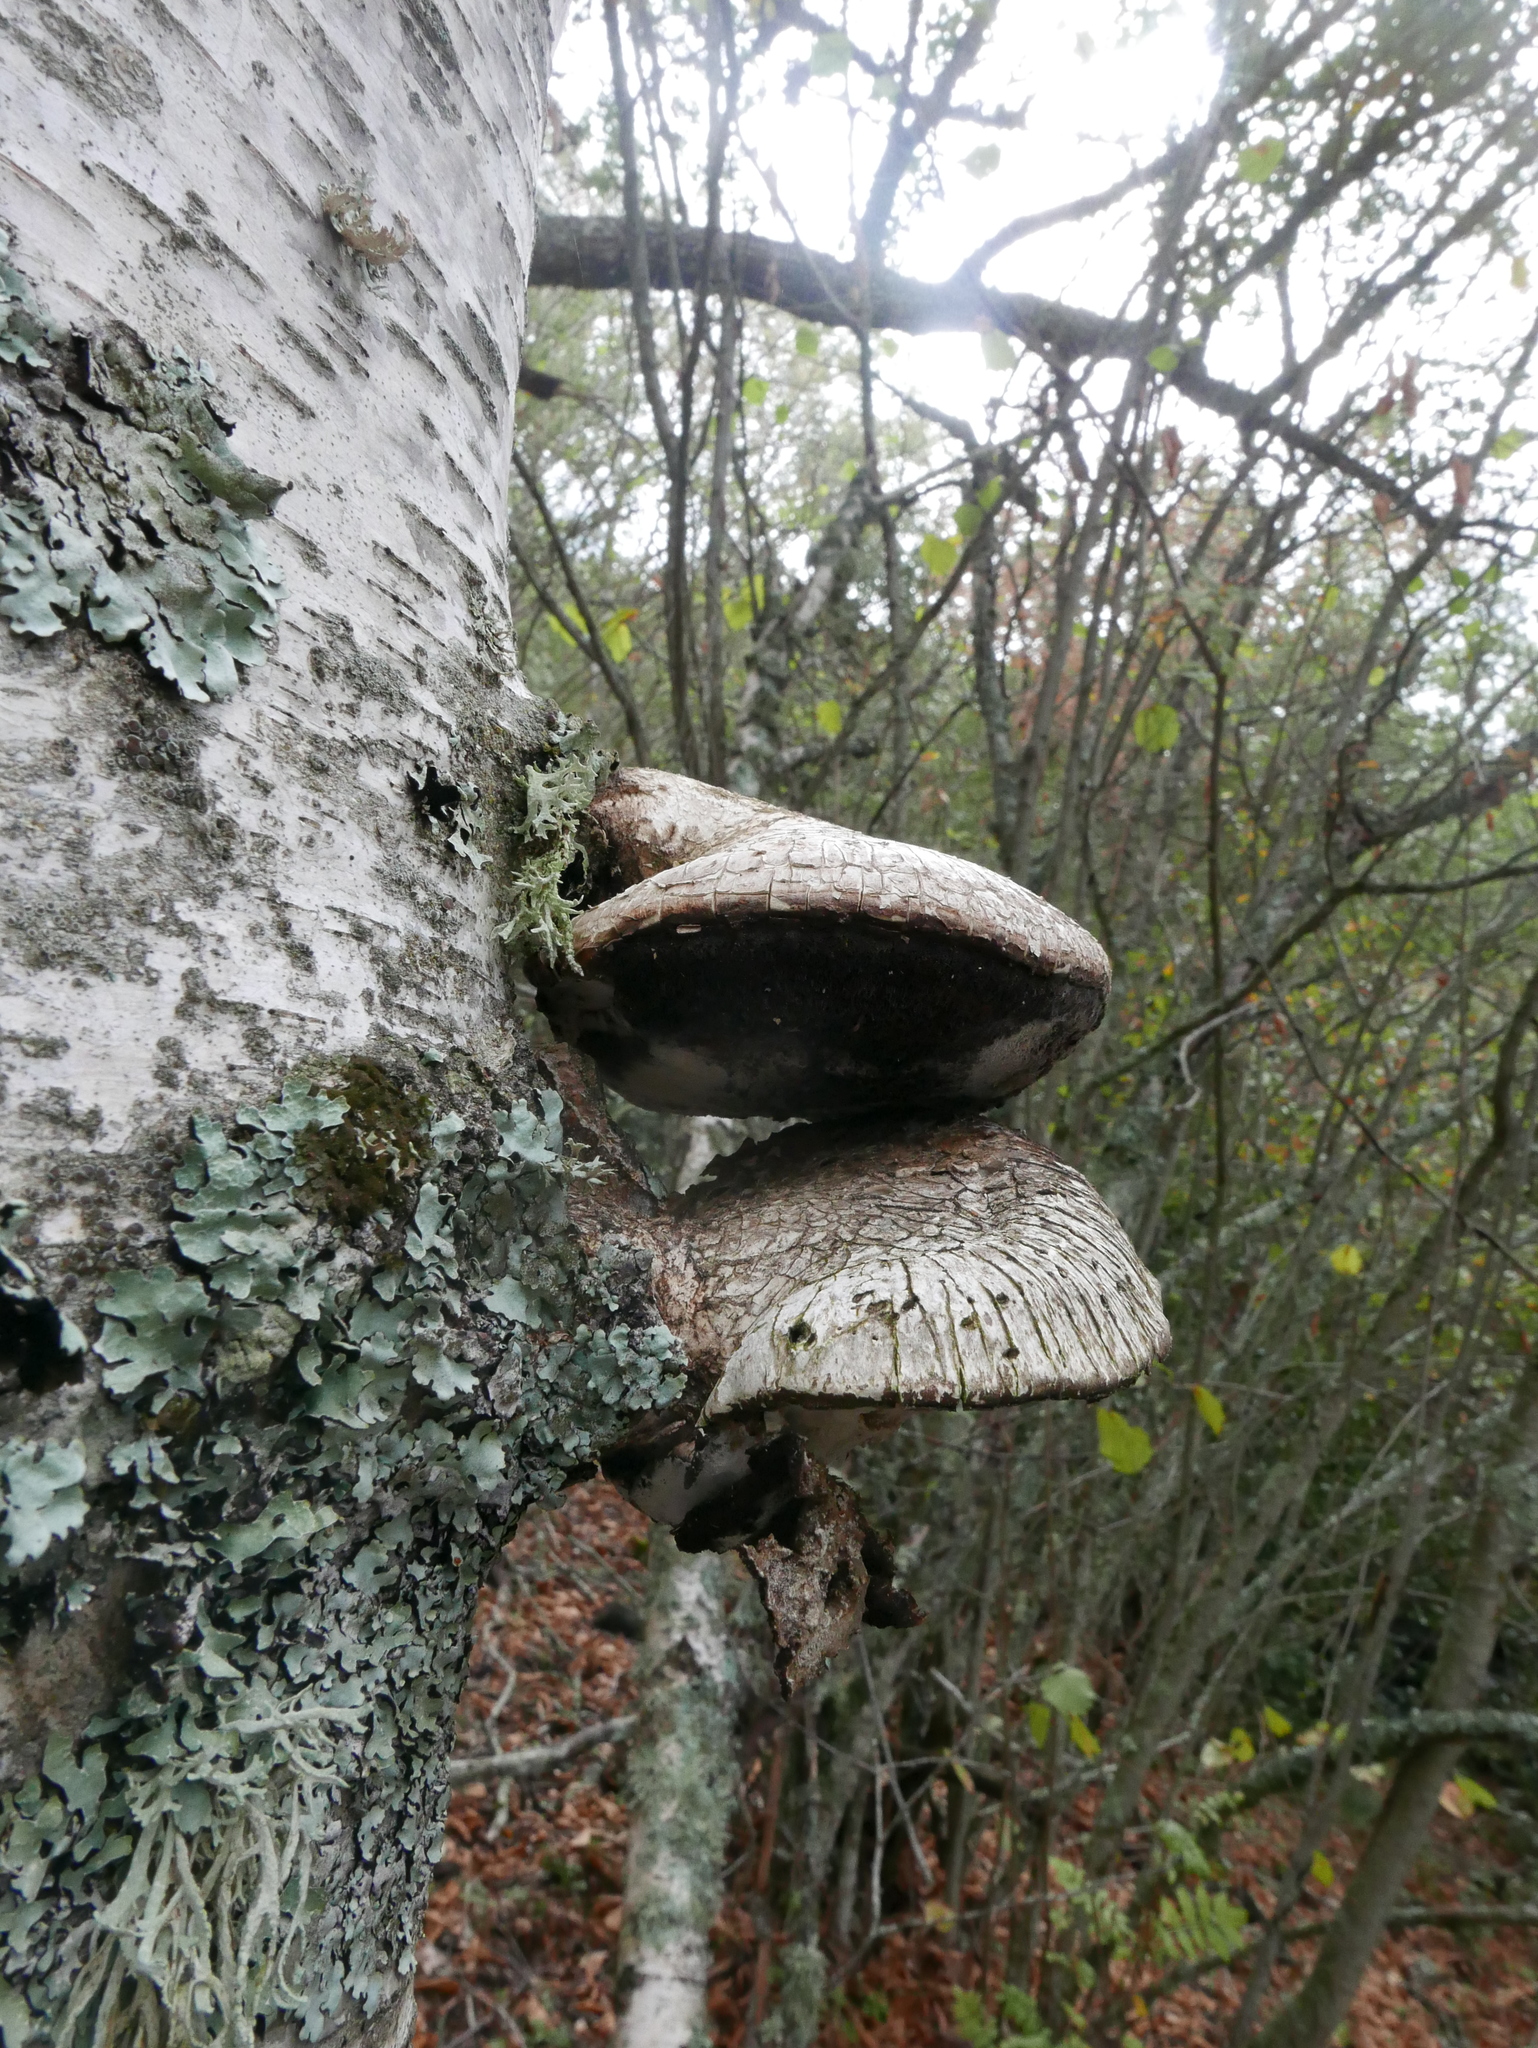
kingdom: Fungi
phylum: Basidiomycota
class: Agaricomycetes
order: Polyporales
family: Fomitopsidaceae
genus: Fomitopsis
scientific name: Fomitopsis betulina
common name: Birch polypore
